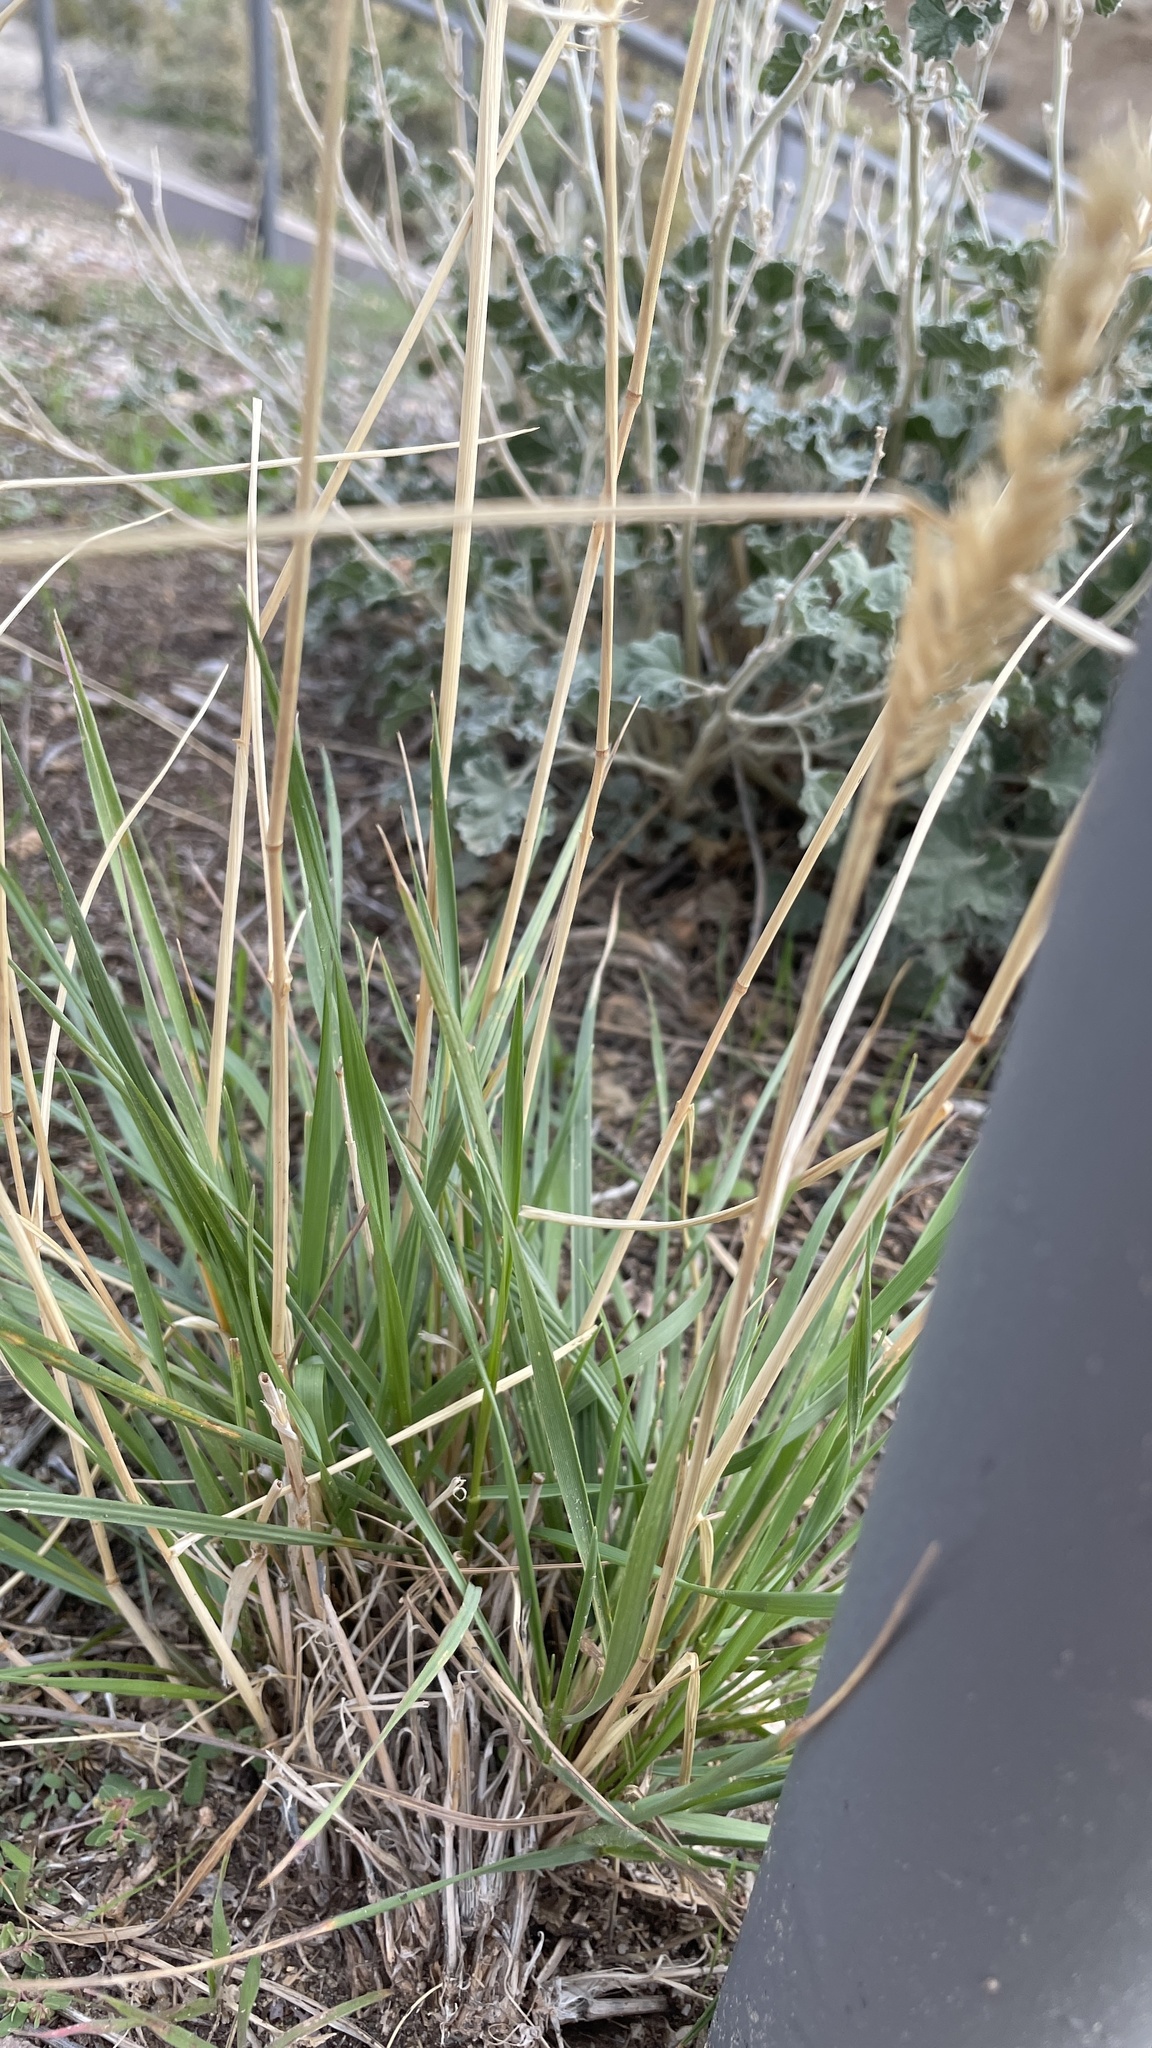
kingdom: Plantae
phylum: Tracheophyta
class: Liliopsida
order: Poales
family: Poaceae
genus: Agropyron
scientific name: Agropyron cristatum
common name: Crested wheatgrass
